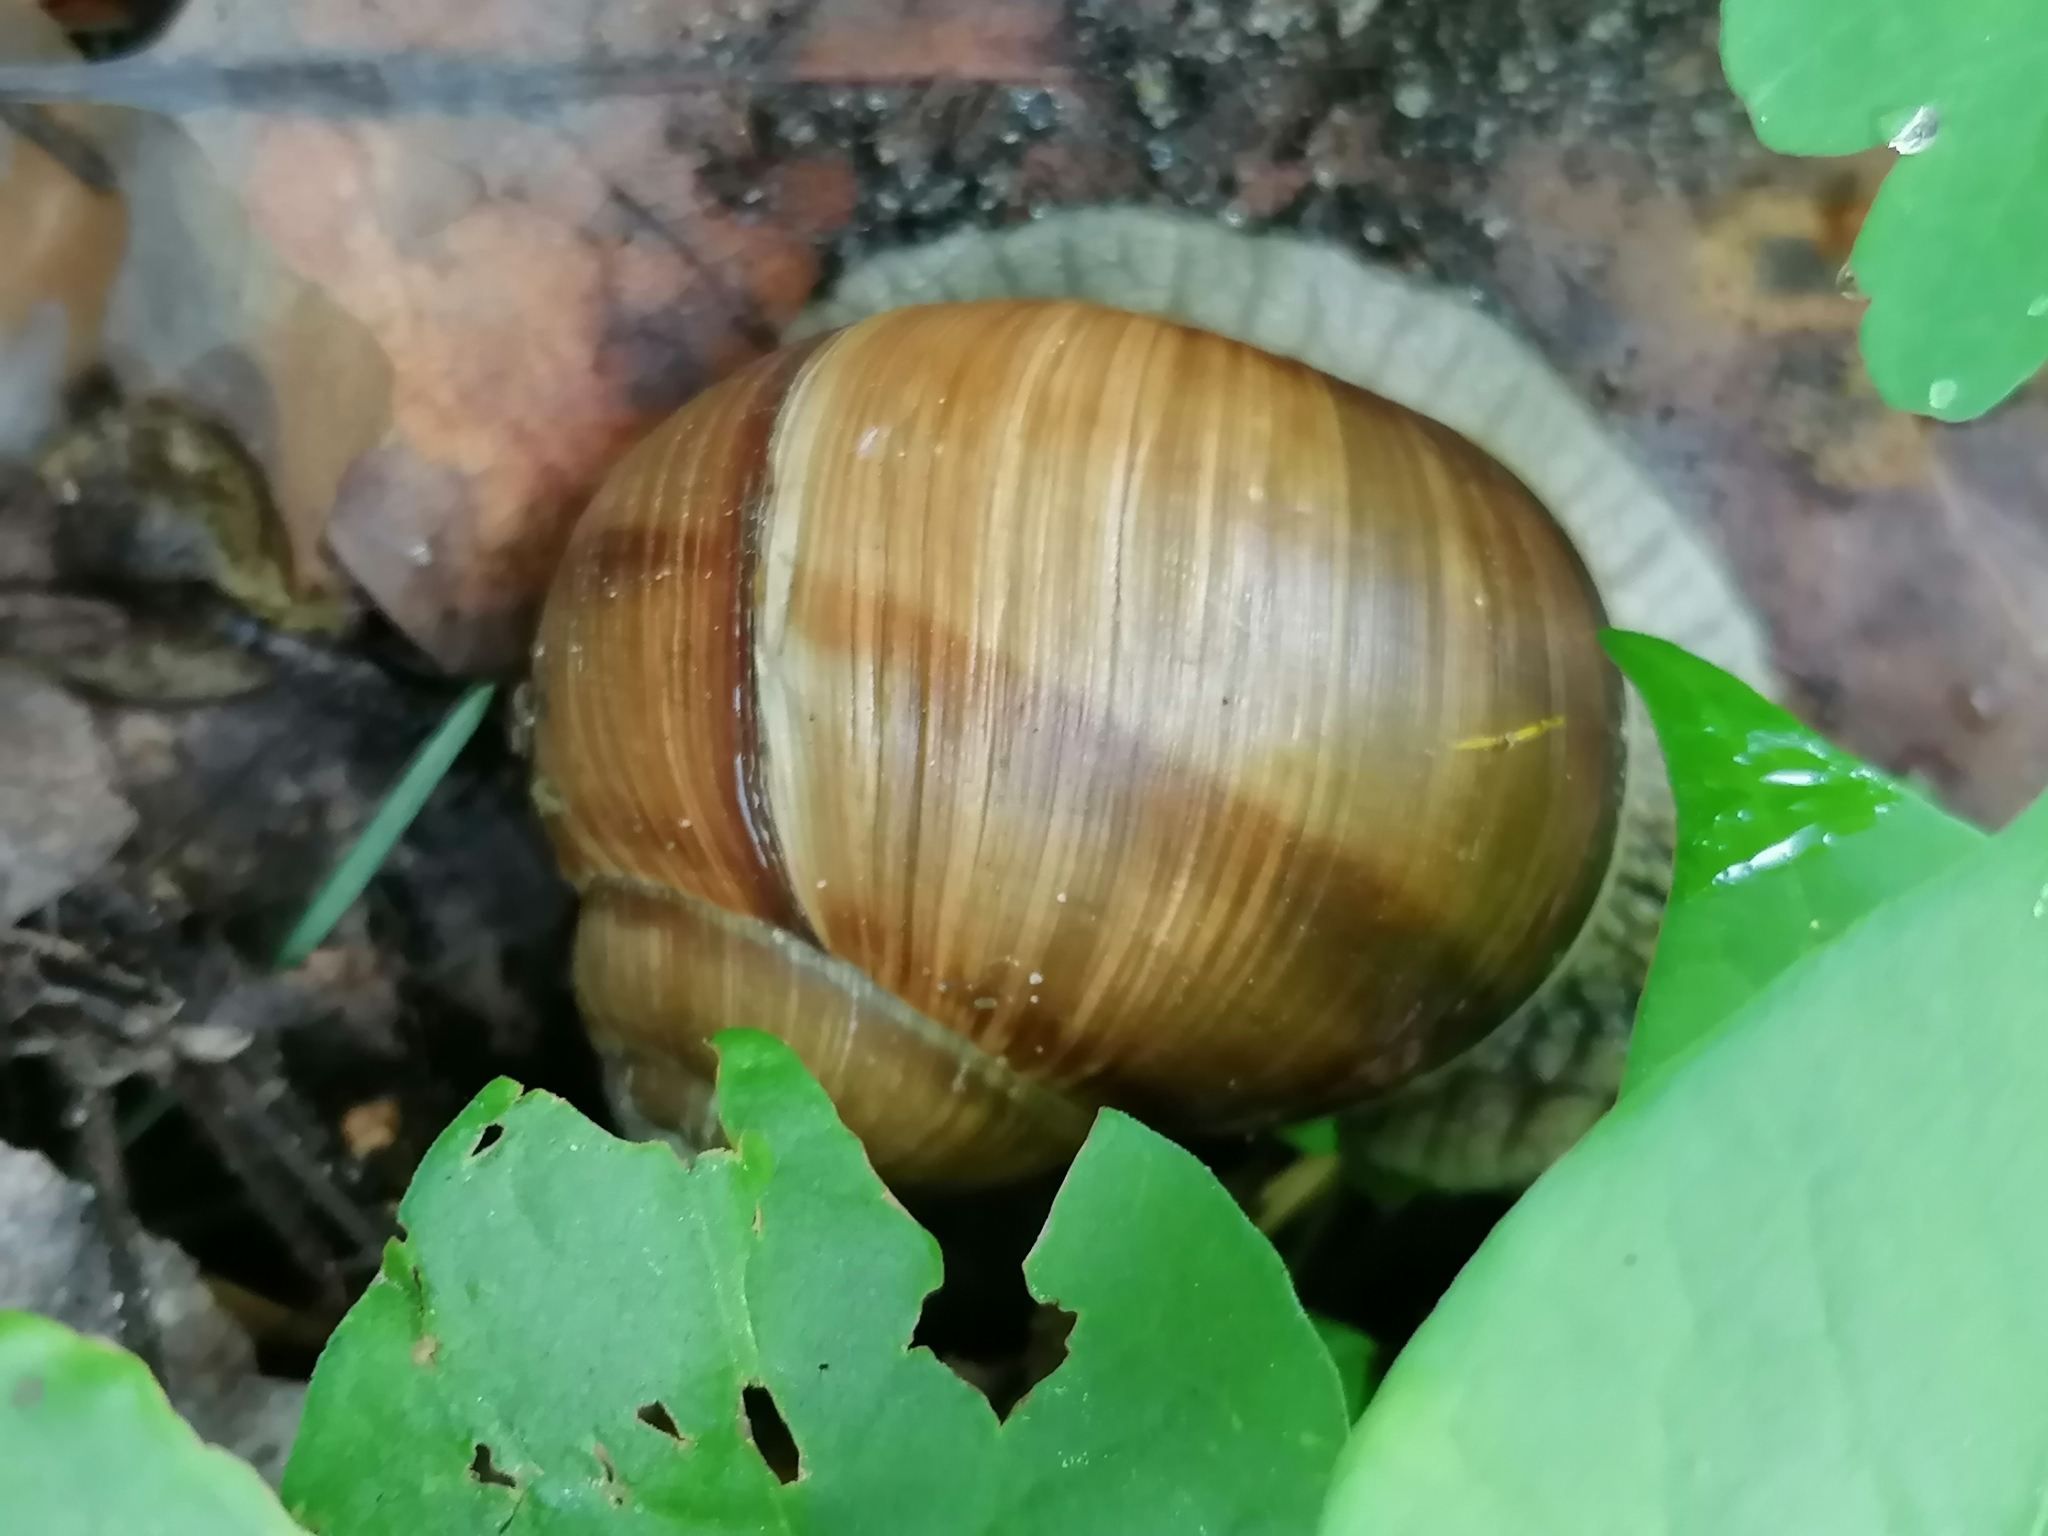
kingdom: Animalia
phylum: Mollusca
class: Gastropoda
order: Stylommatophora
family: Helicidae
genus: Helix
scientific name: Helix pomatia
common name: Roman snail
